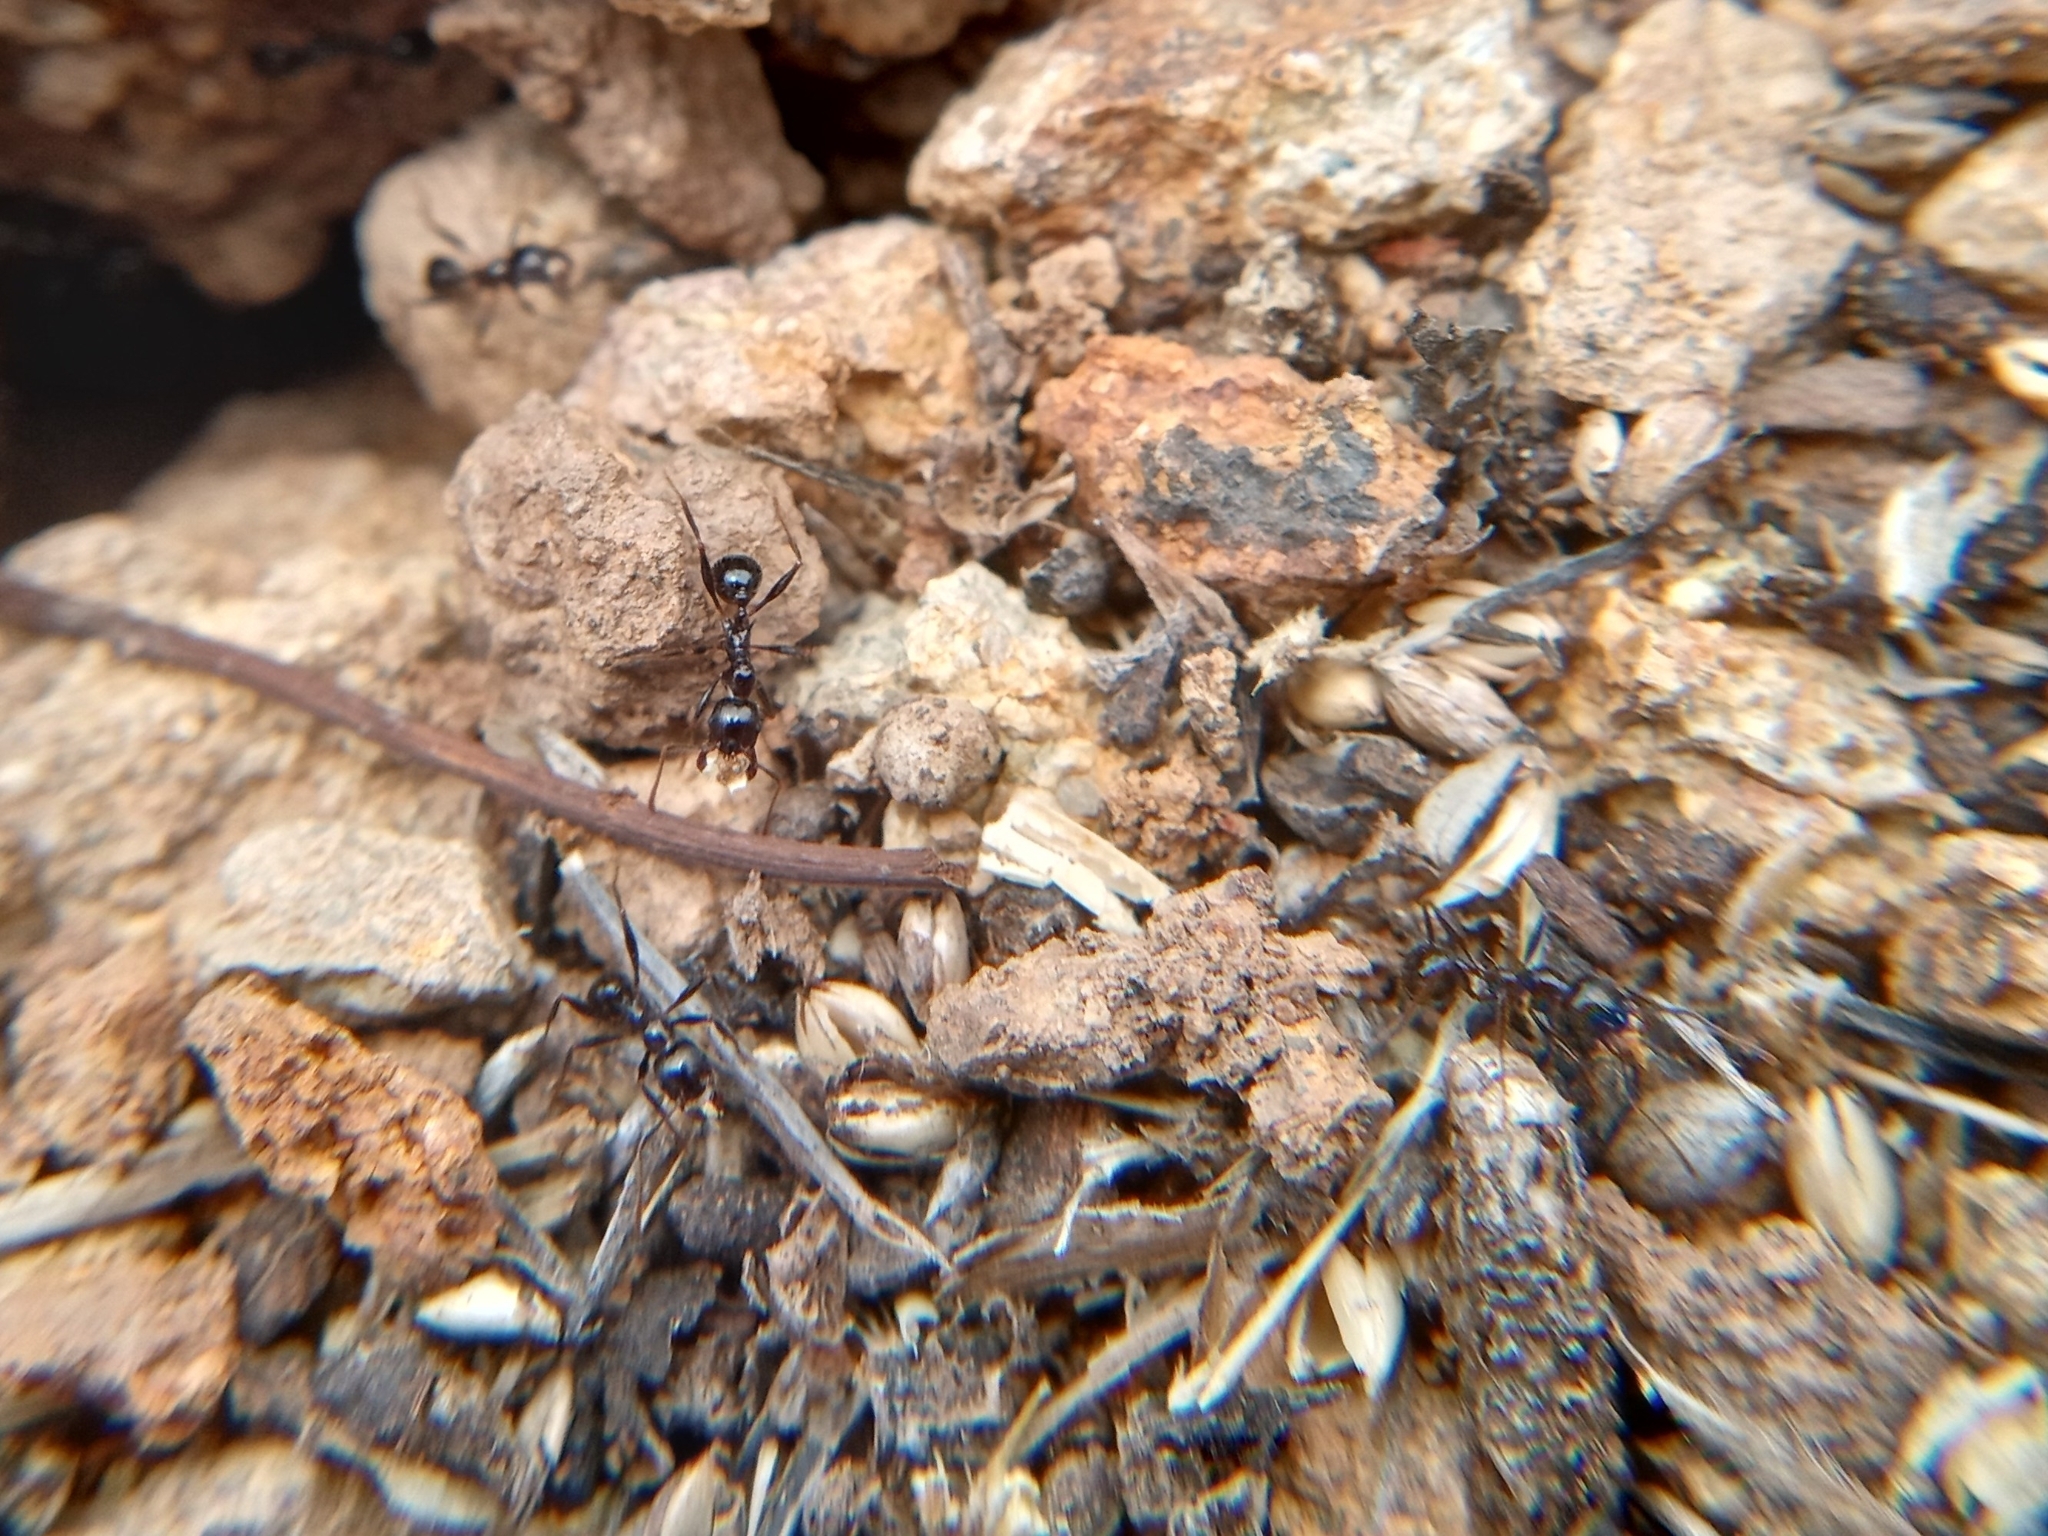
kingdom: Animalia
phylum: Arthropoda
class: Insecta
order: Hymenoptera
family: Formicidae
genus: Pheidole
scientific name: Pheidole rhea
